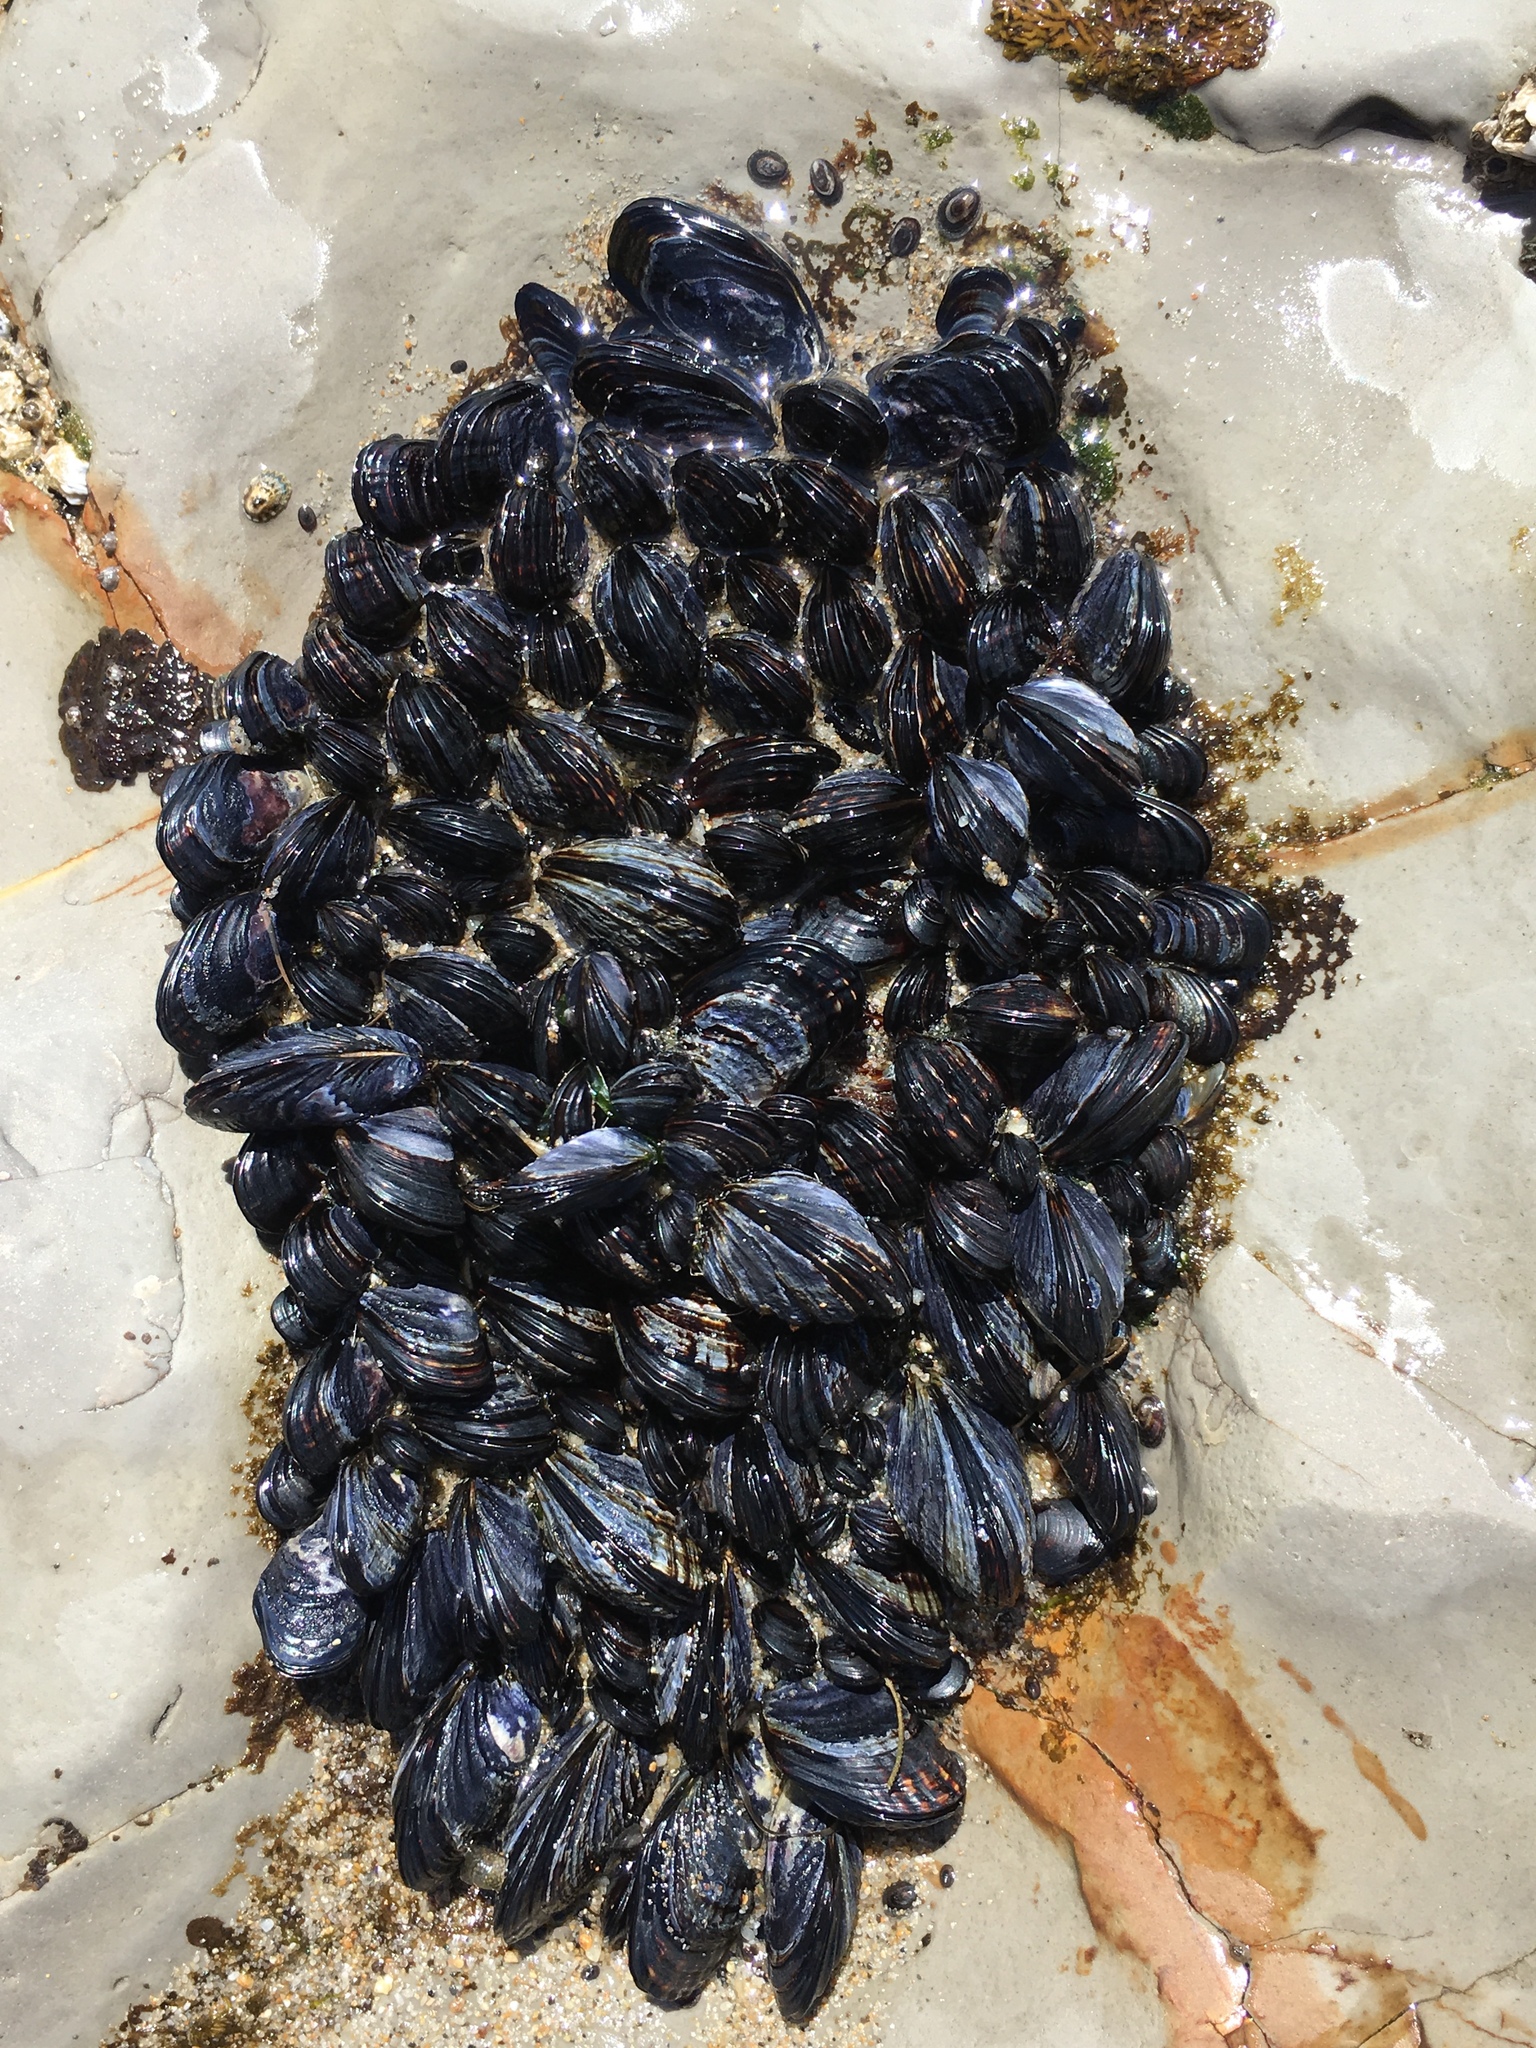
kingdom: Animalia
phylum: Mollusca
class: Bivalvia
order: Mytilida
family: Mytilidae
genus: Mytilus
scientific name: Mytilus californianus
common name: California mussel
